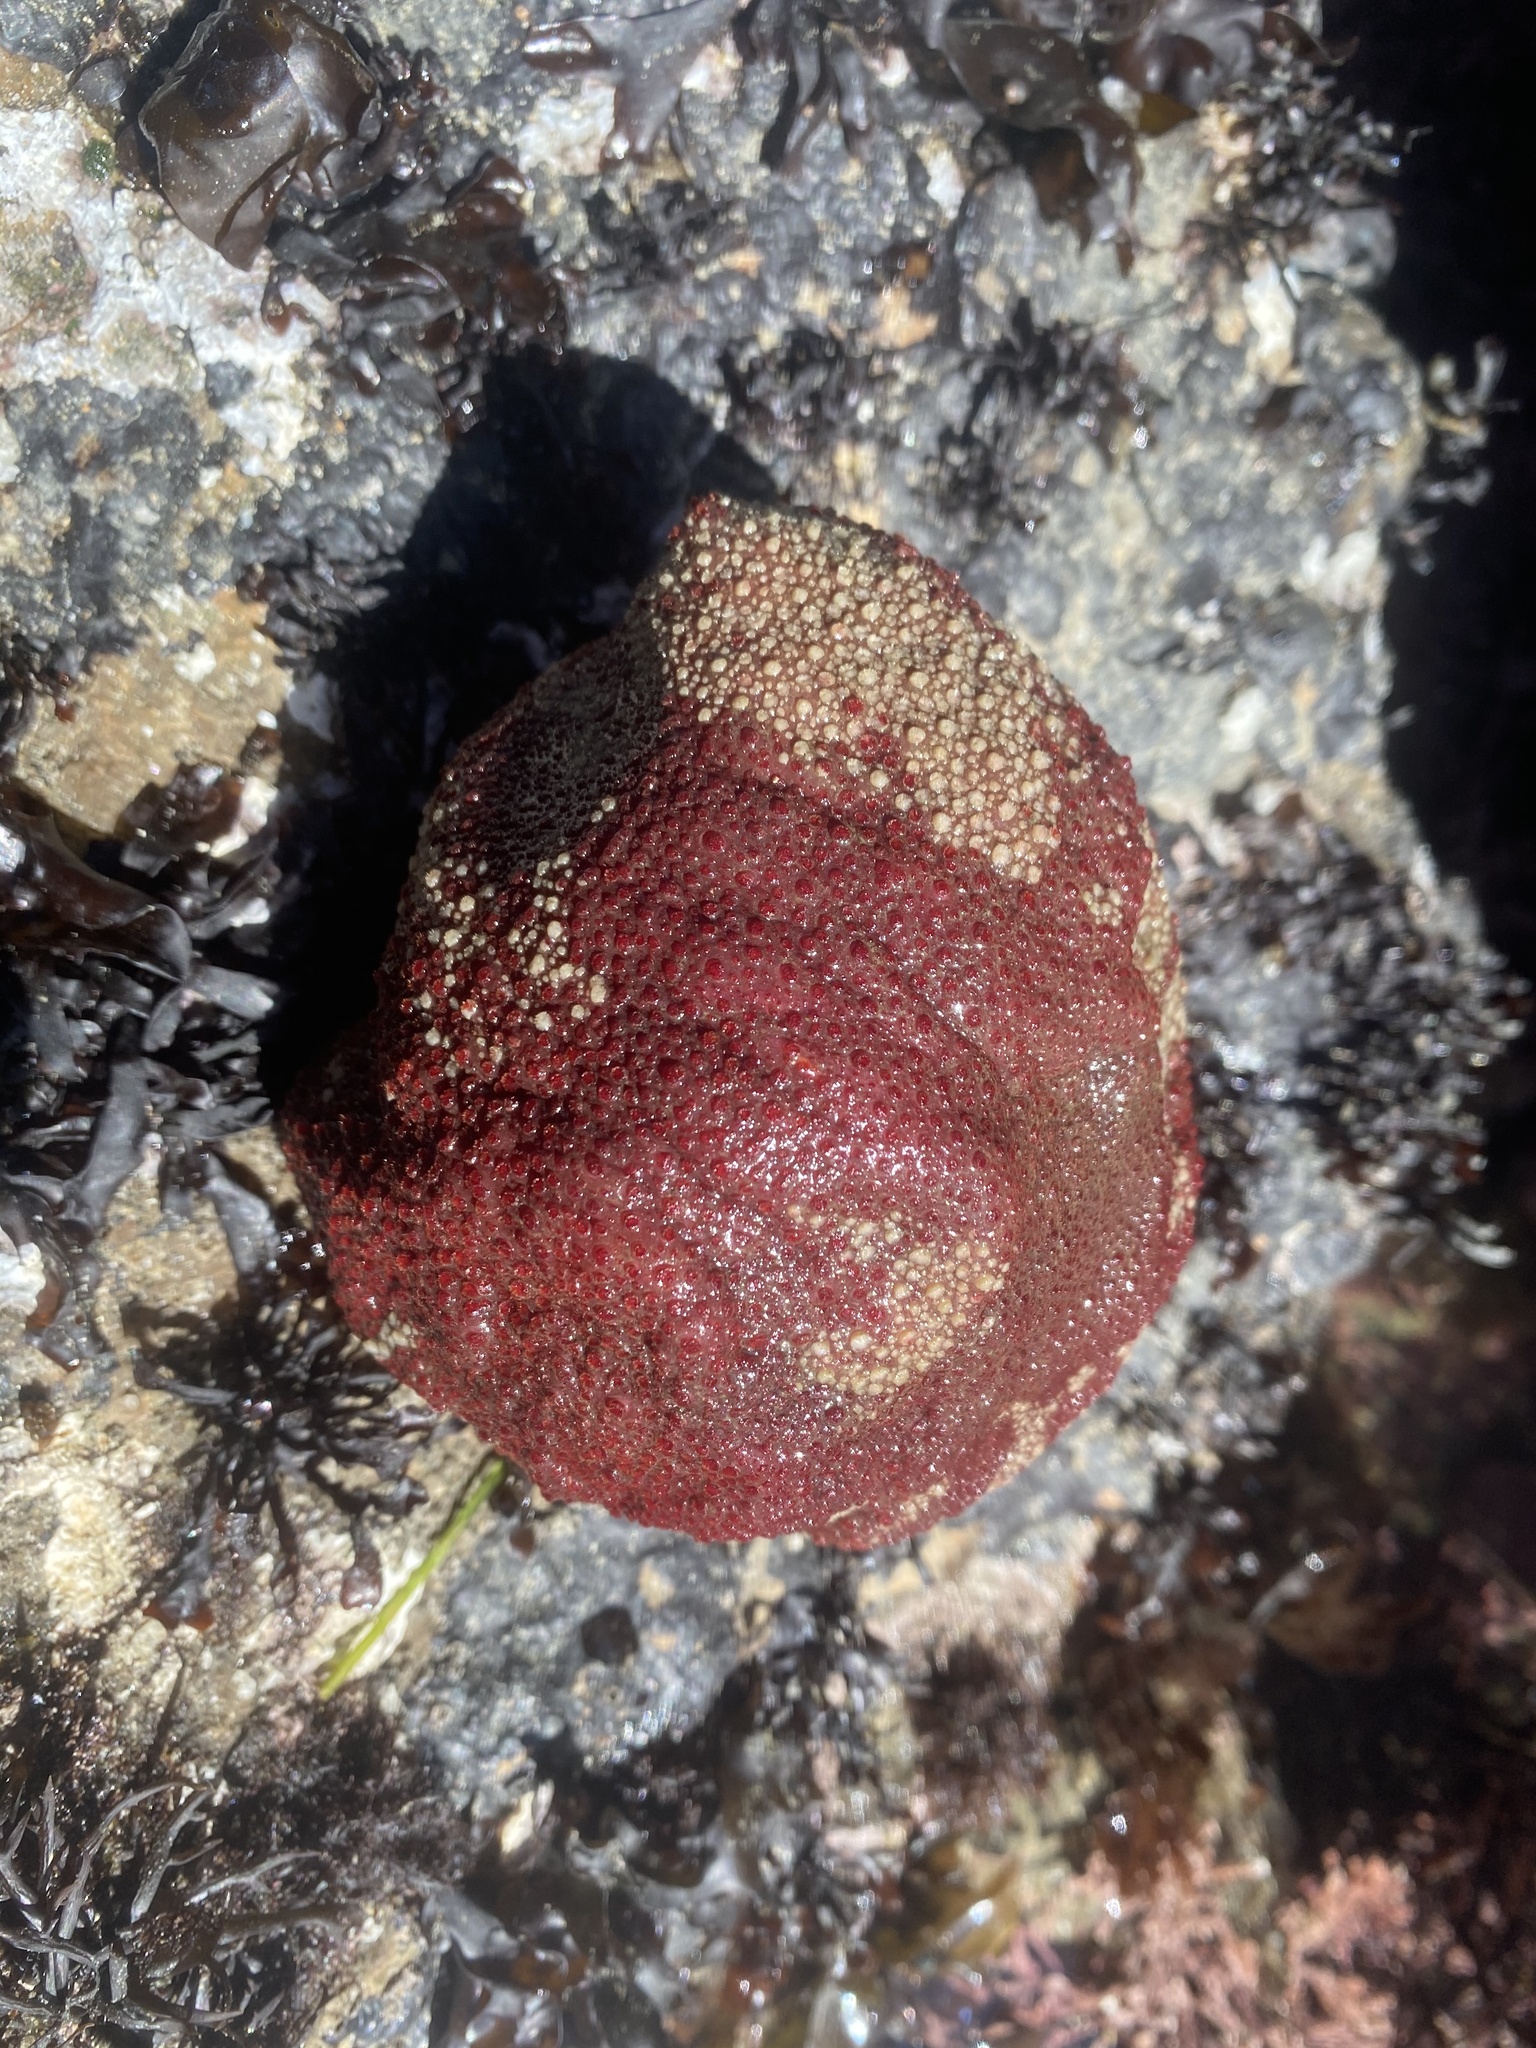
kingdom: Animalia
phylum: Mollusca
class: Polyplacophora
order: Chitonida
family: Acanthochitonidae
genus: Cryptochiton
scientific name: Cryptochiton stelleri
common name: Giant pacific chiton
